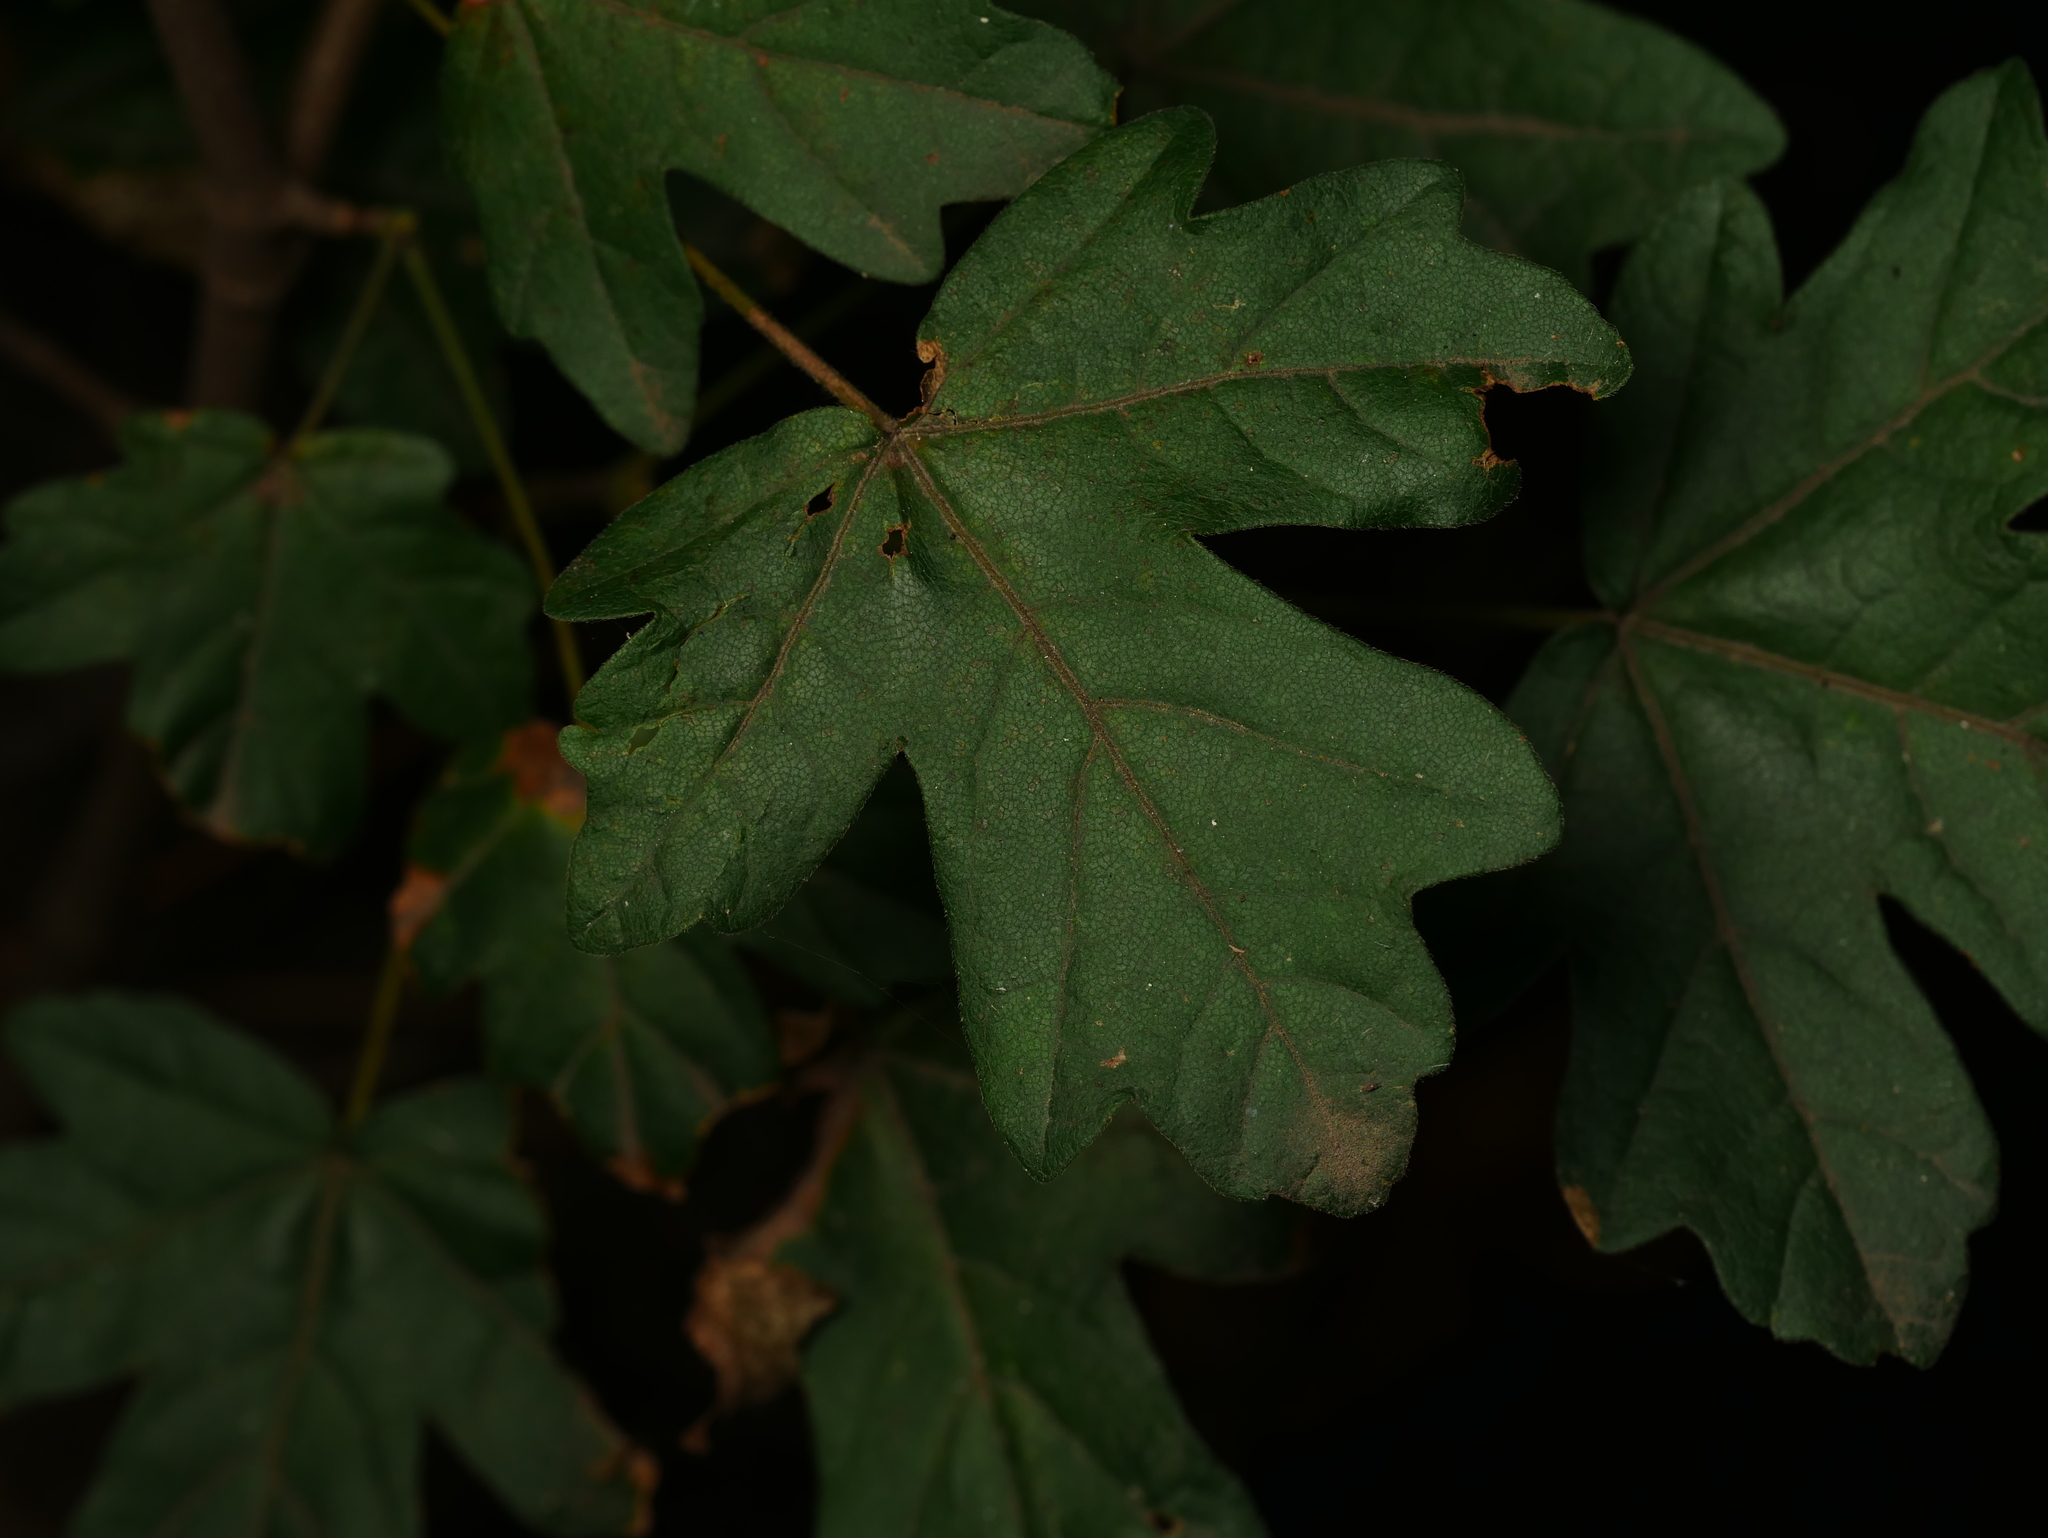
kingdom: Plantae
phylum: Tracheophyta
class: Magnoliopsida
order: Sapindales
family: Sapindaceae
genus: Acer
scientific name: Acer campestre
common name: Field maple
